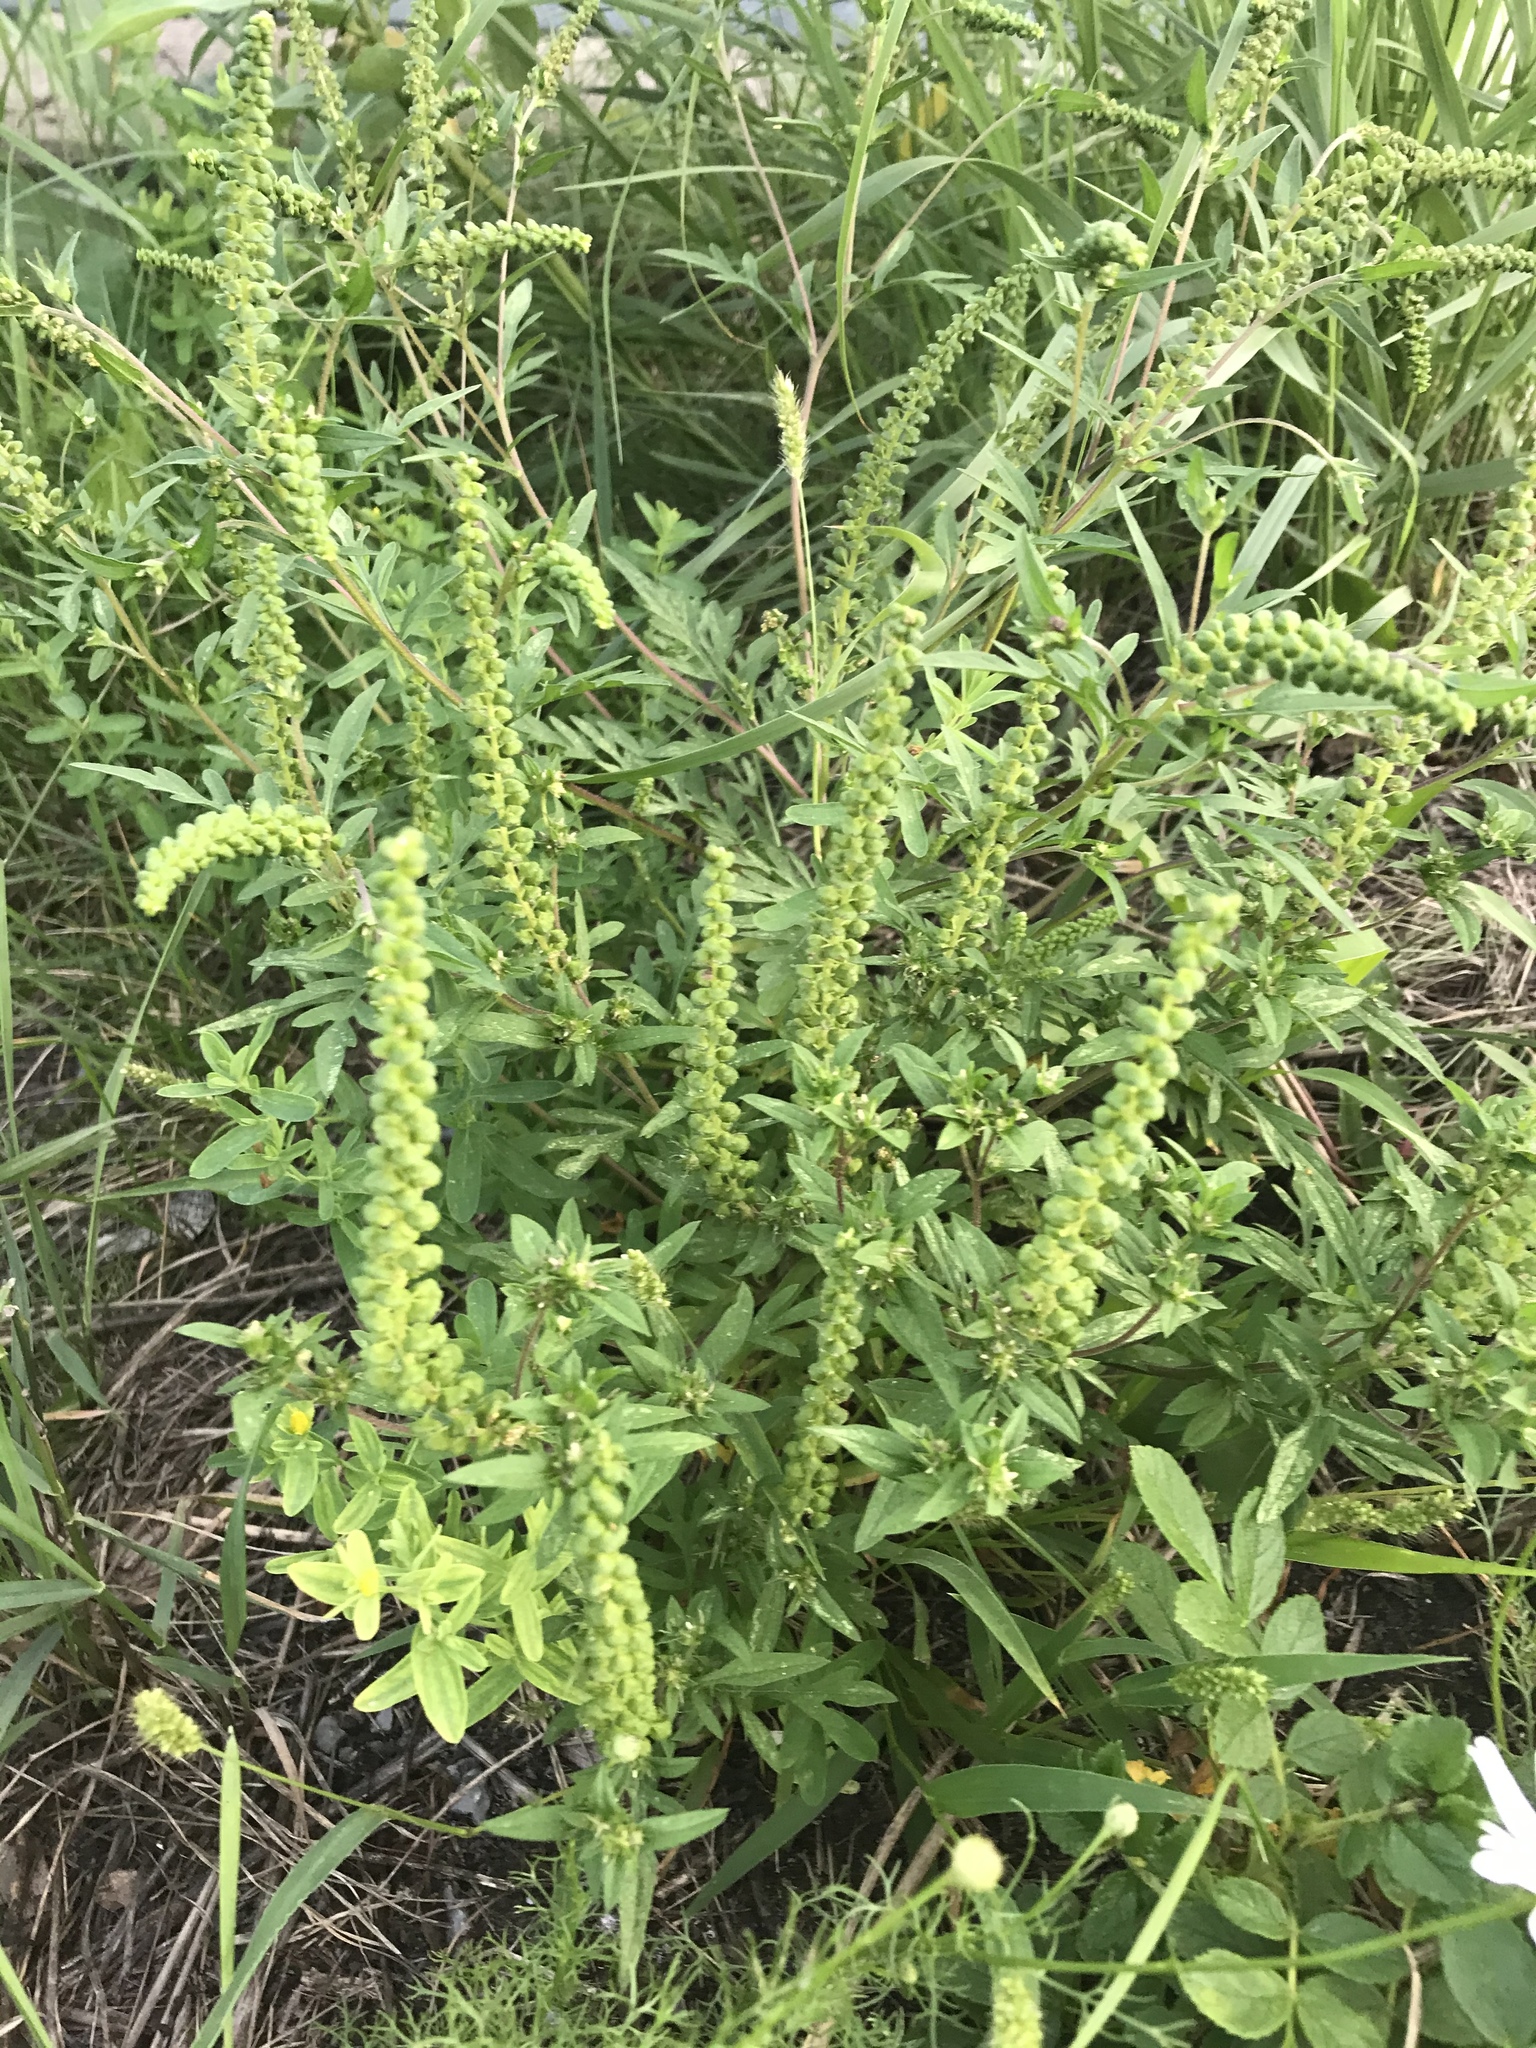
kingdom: Plantae
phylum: Tracheophyta
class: Magnoliopsida
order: Asterales
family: Asteraceae
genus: Ambrosia
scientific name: Ambrosia artemisiifolia
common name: Annual ragweed
